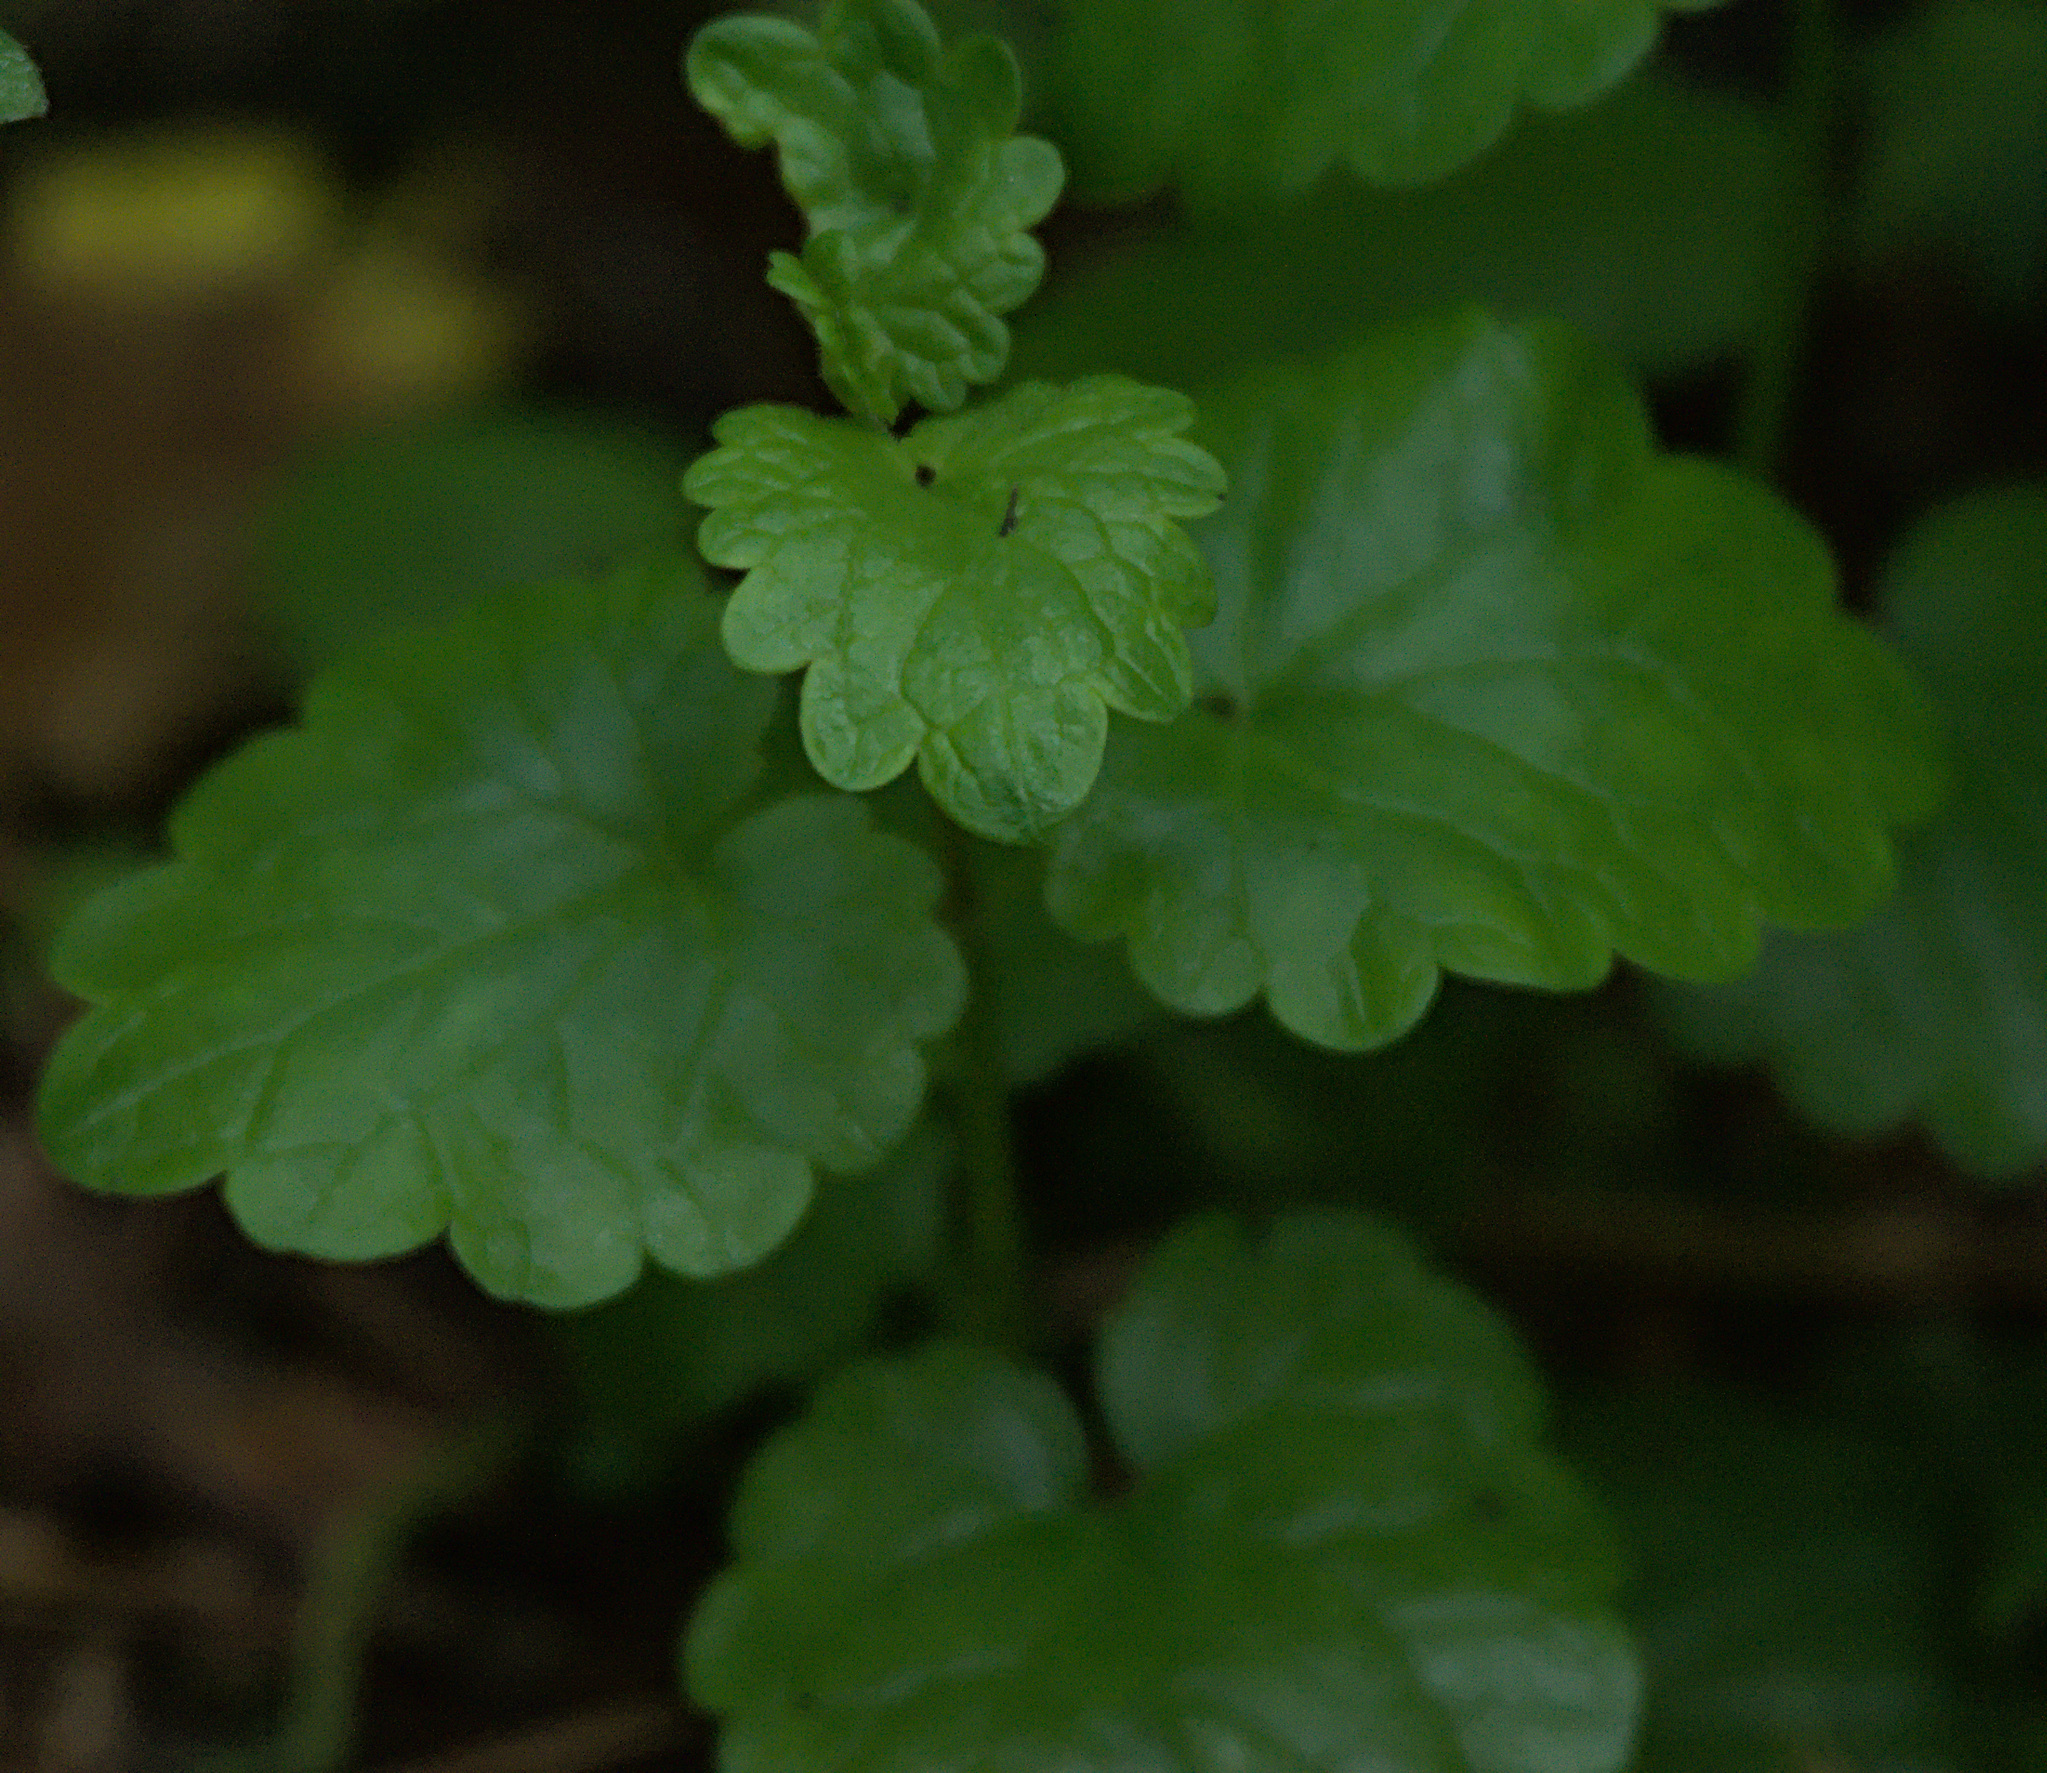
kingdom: Plantae
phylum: Tracheophyta
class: Magnoliopsida
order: Lamiales
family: Lamiaceae
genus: Glechoma
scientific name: Glechoma hederacea
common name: Ground ivy
